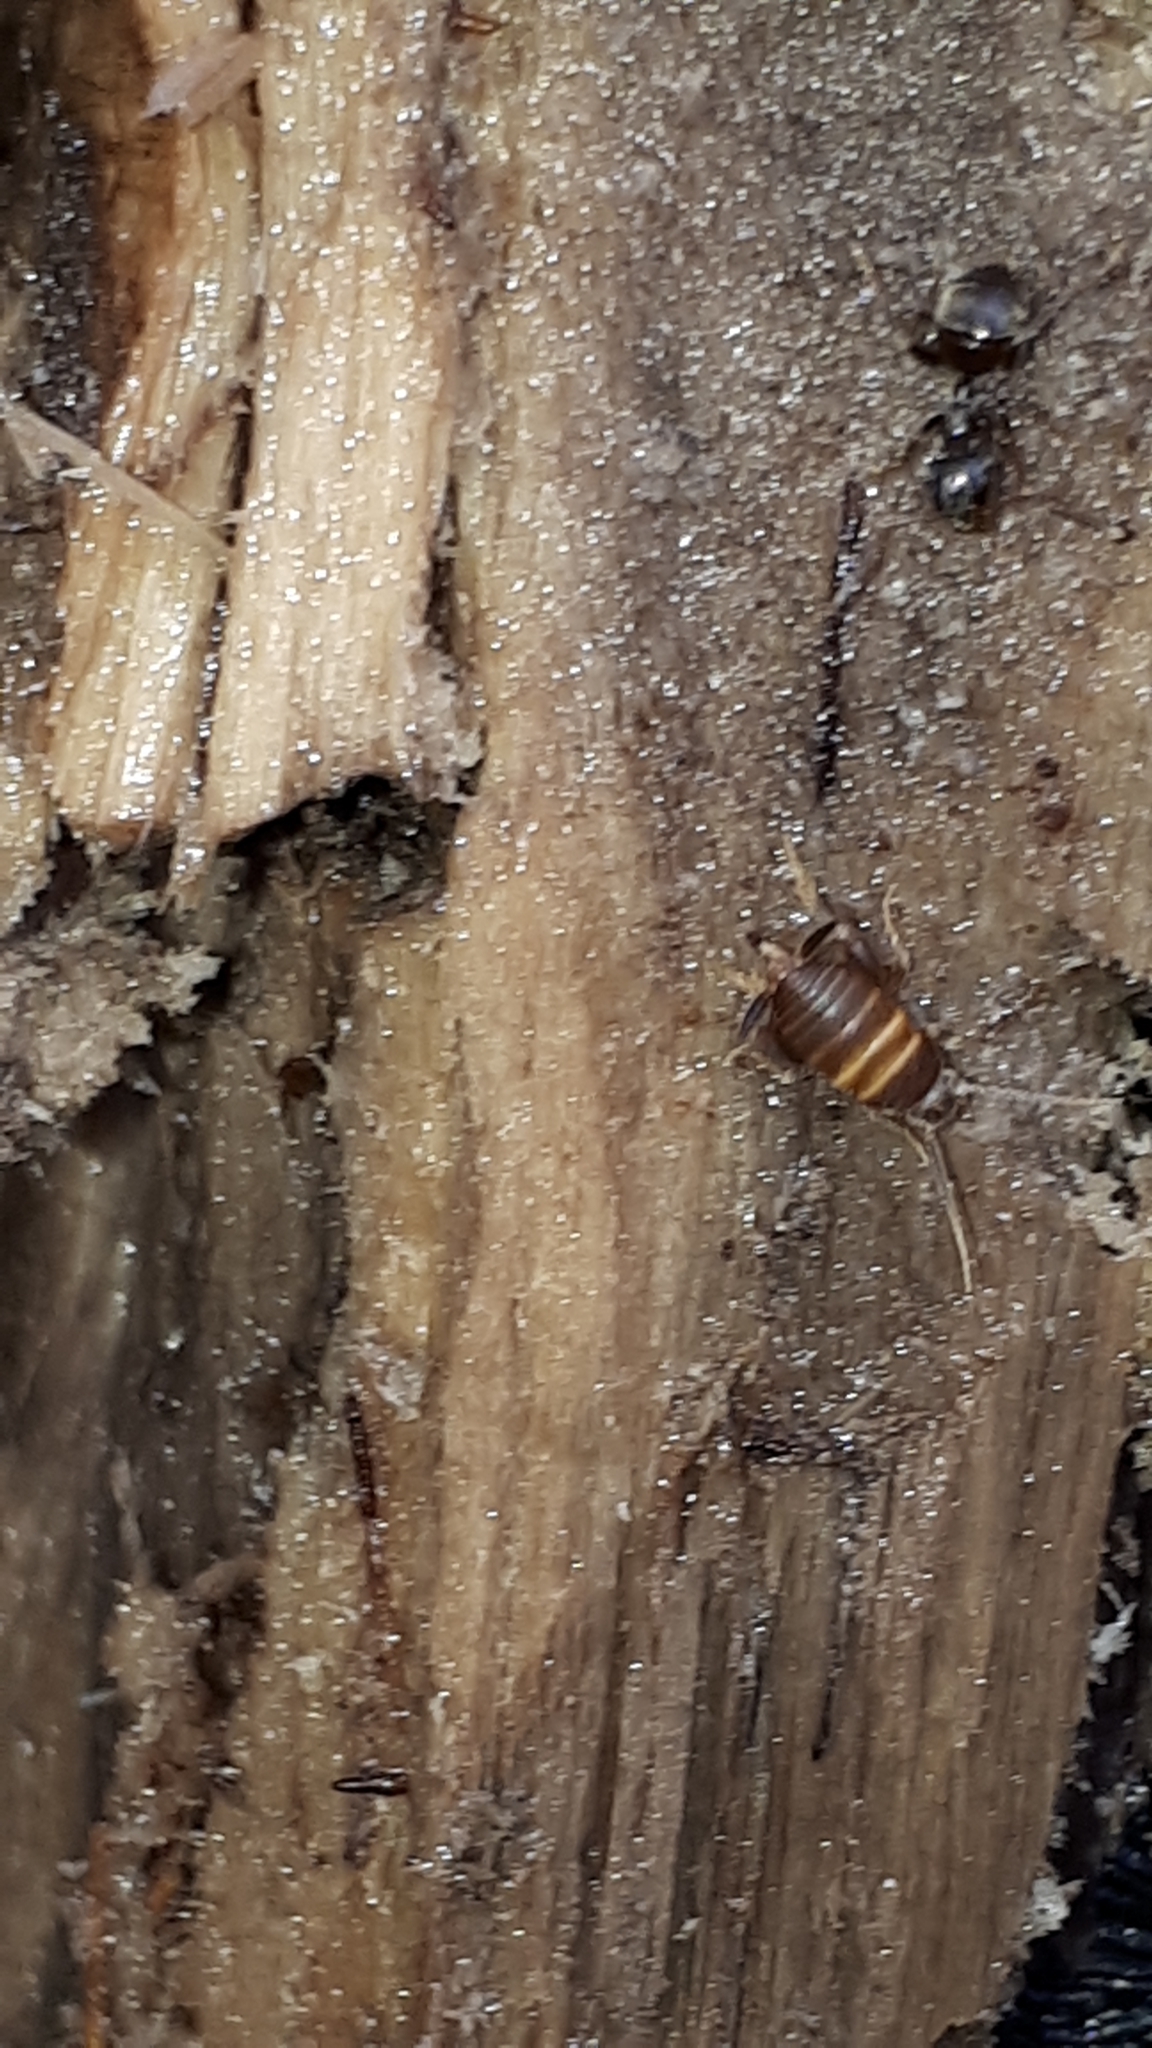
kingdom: Animalia
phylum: Arthropoda
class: Insecta
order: Orthoptera
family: Myrmecophilidae
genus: Myrmecophilus
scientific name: Myrmecophilus acervorum
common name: Ants-nest cricket
